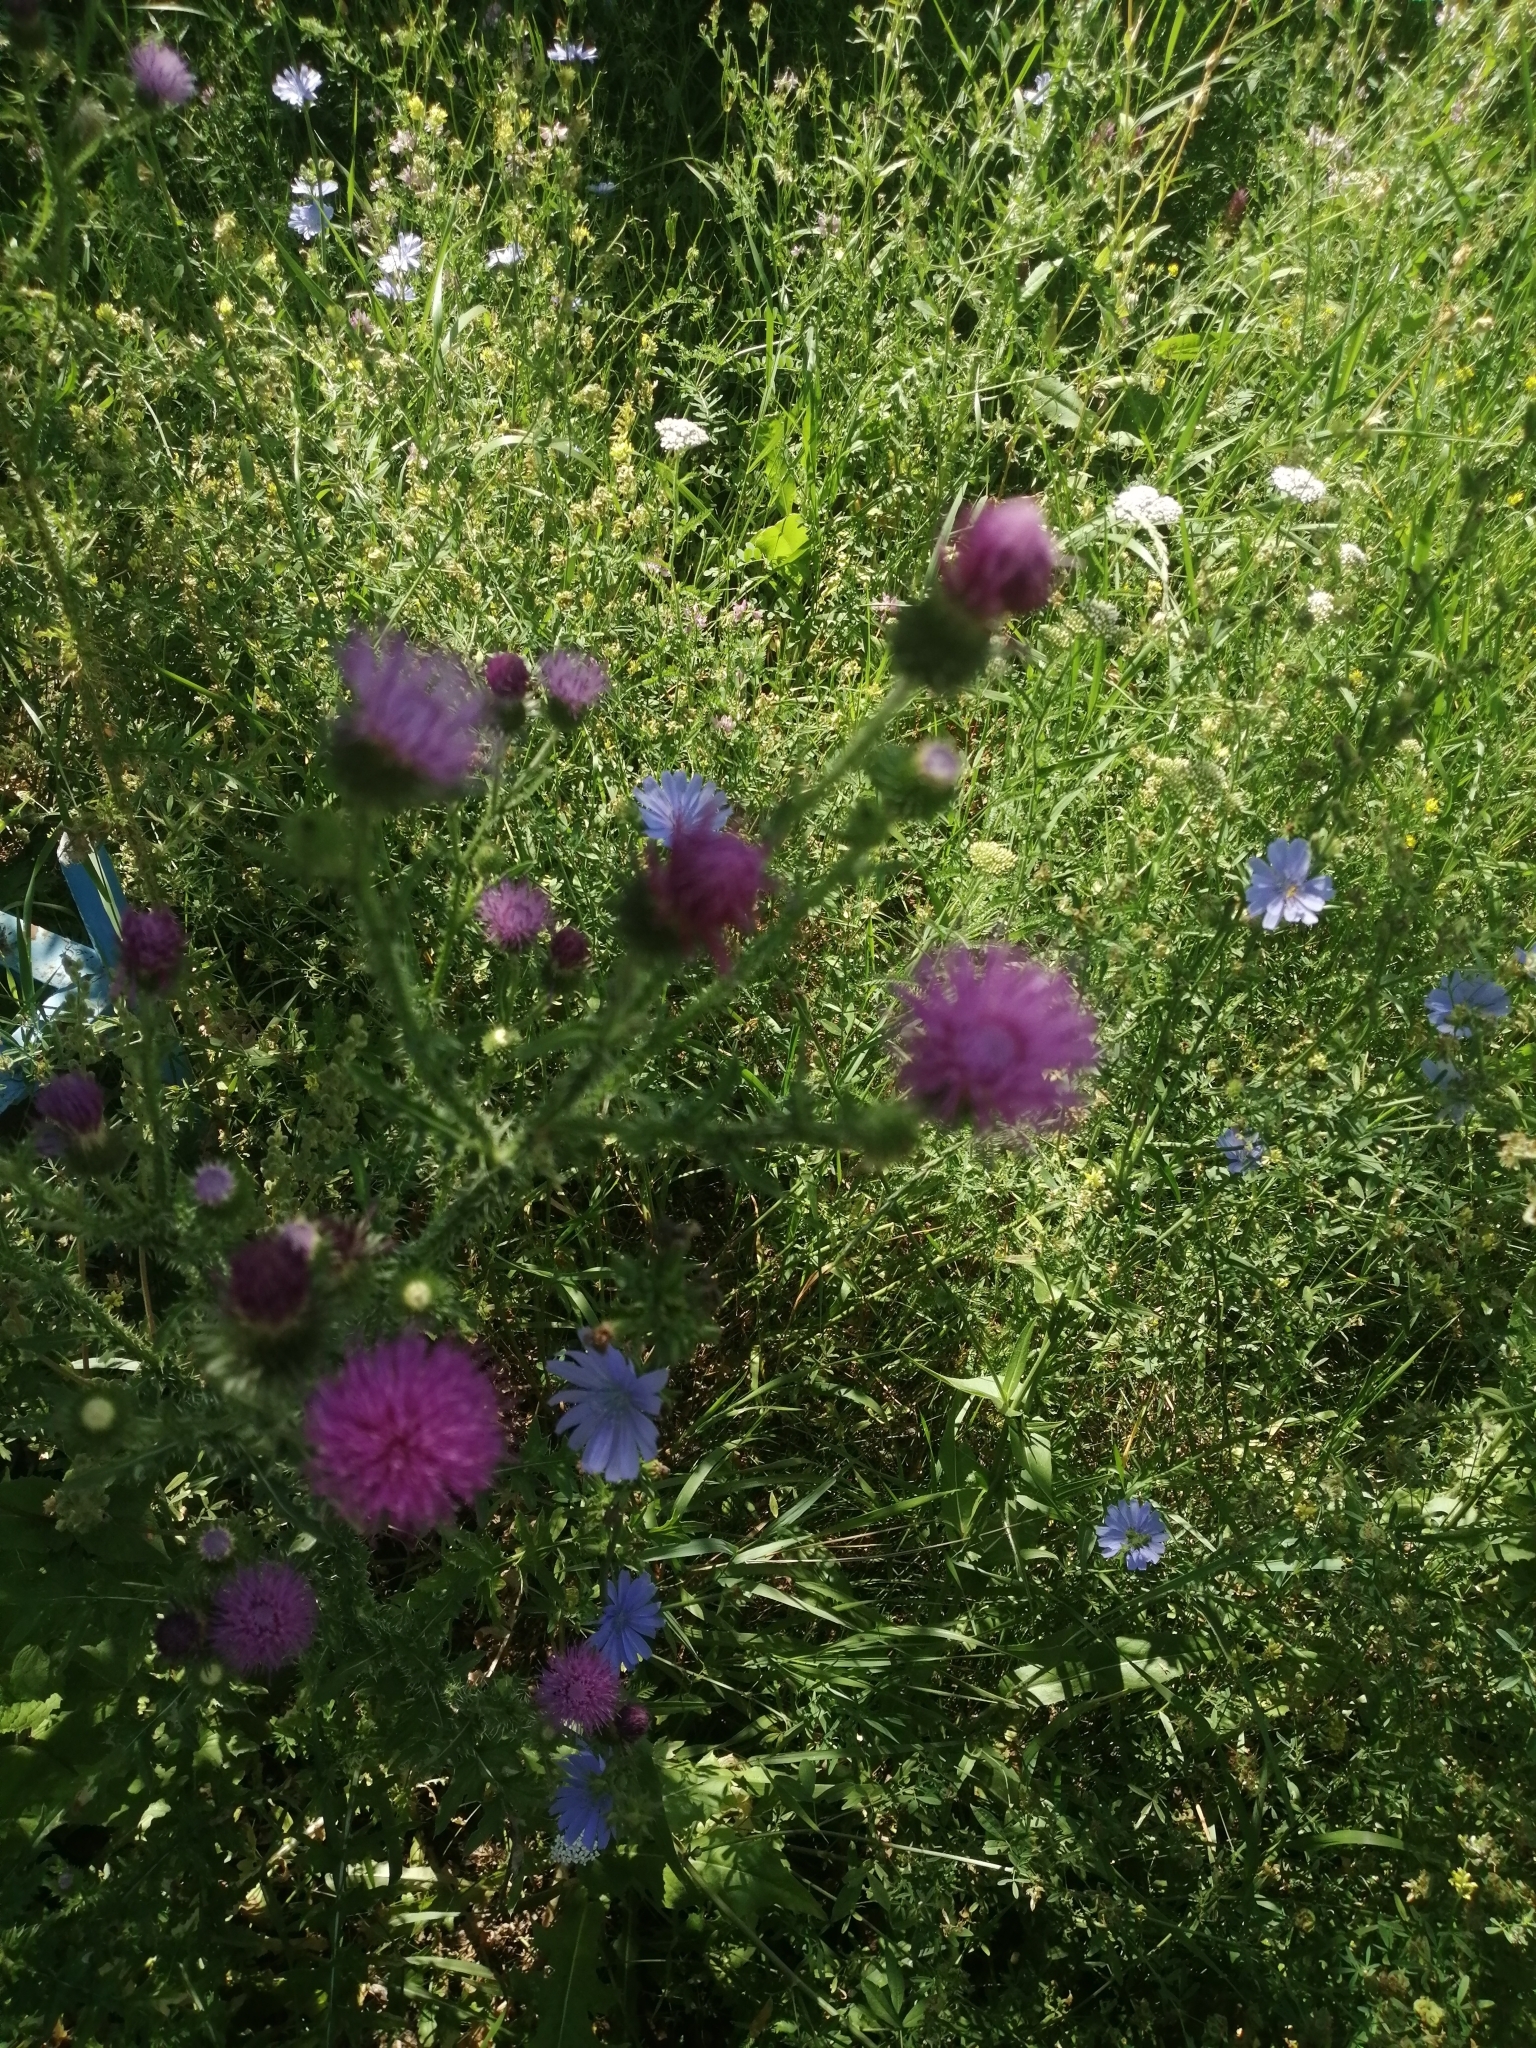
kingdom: Plantae
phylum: Tracheophyta
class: Magnoliopsida
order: Asterales
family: Asteraceae
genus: Carduus
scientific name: Carduus acanthoides
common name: Plumeless thistle
